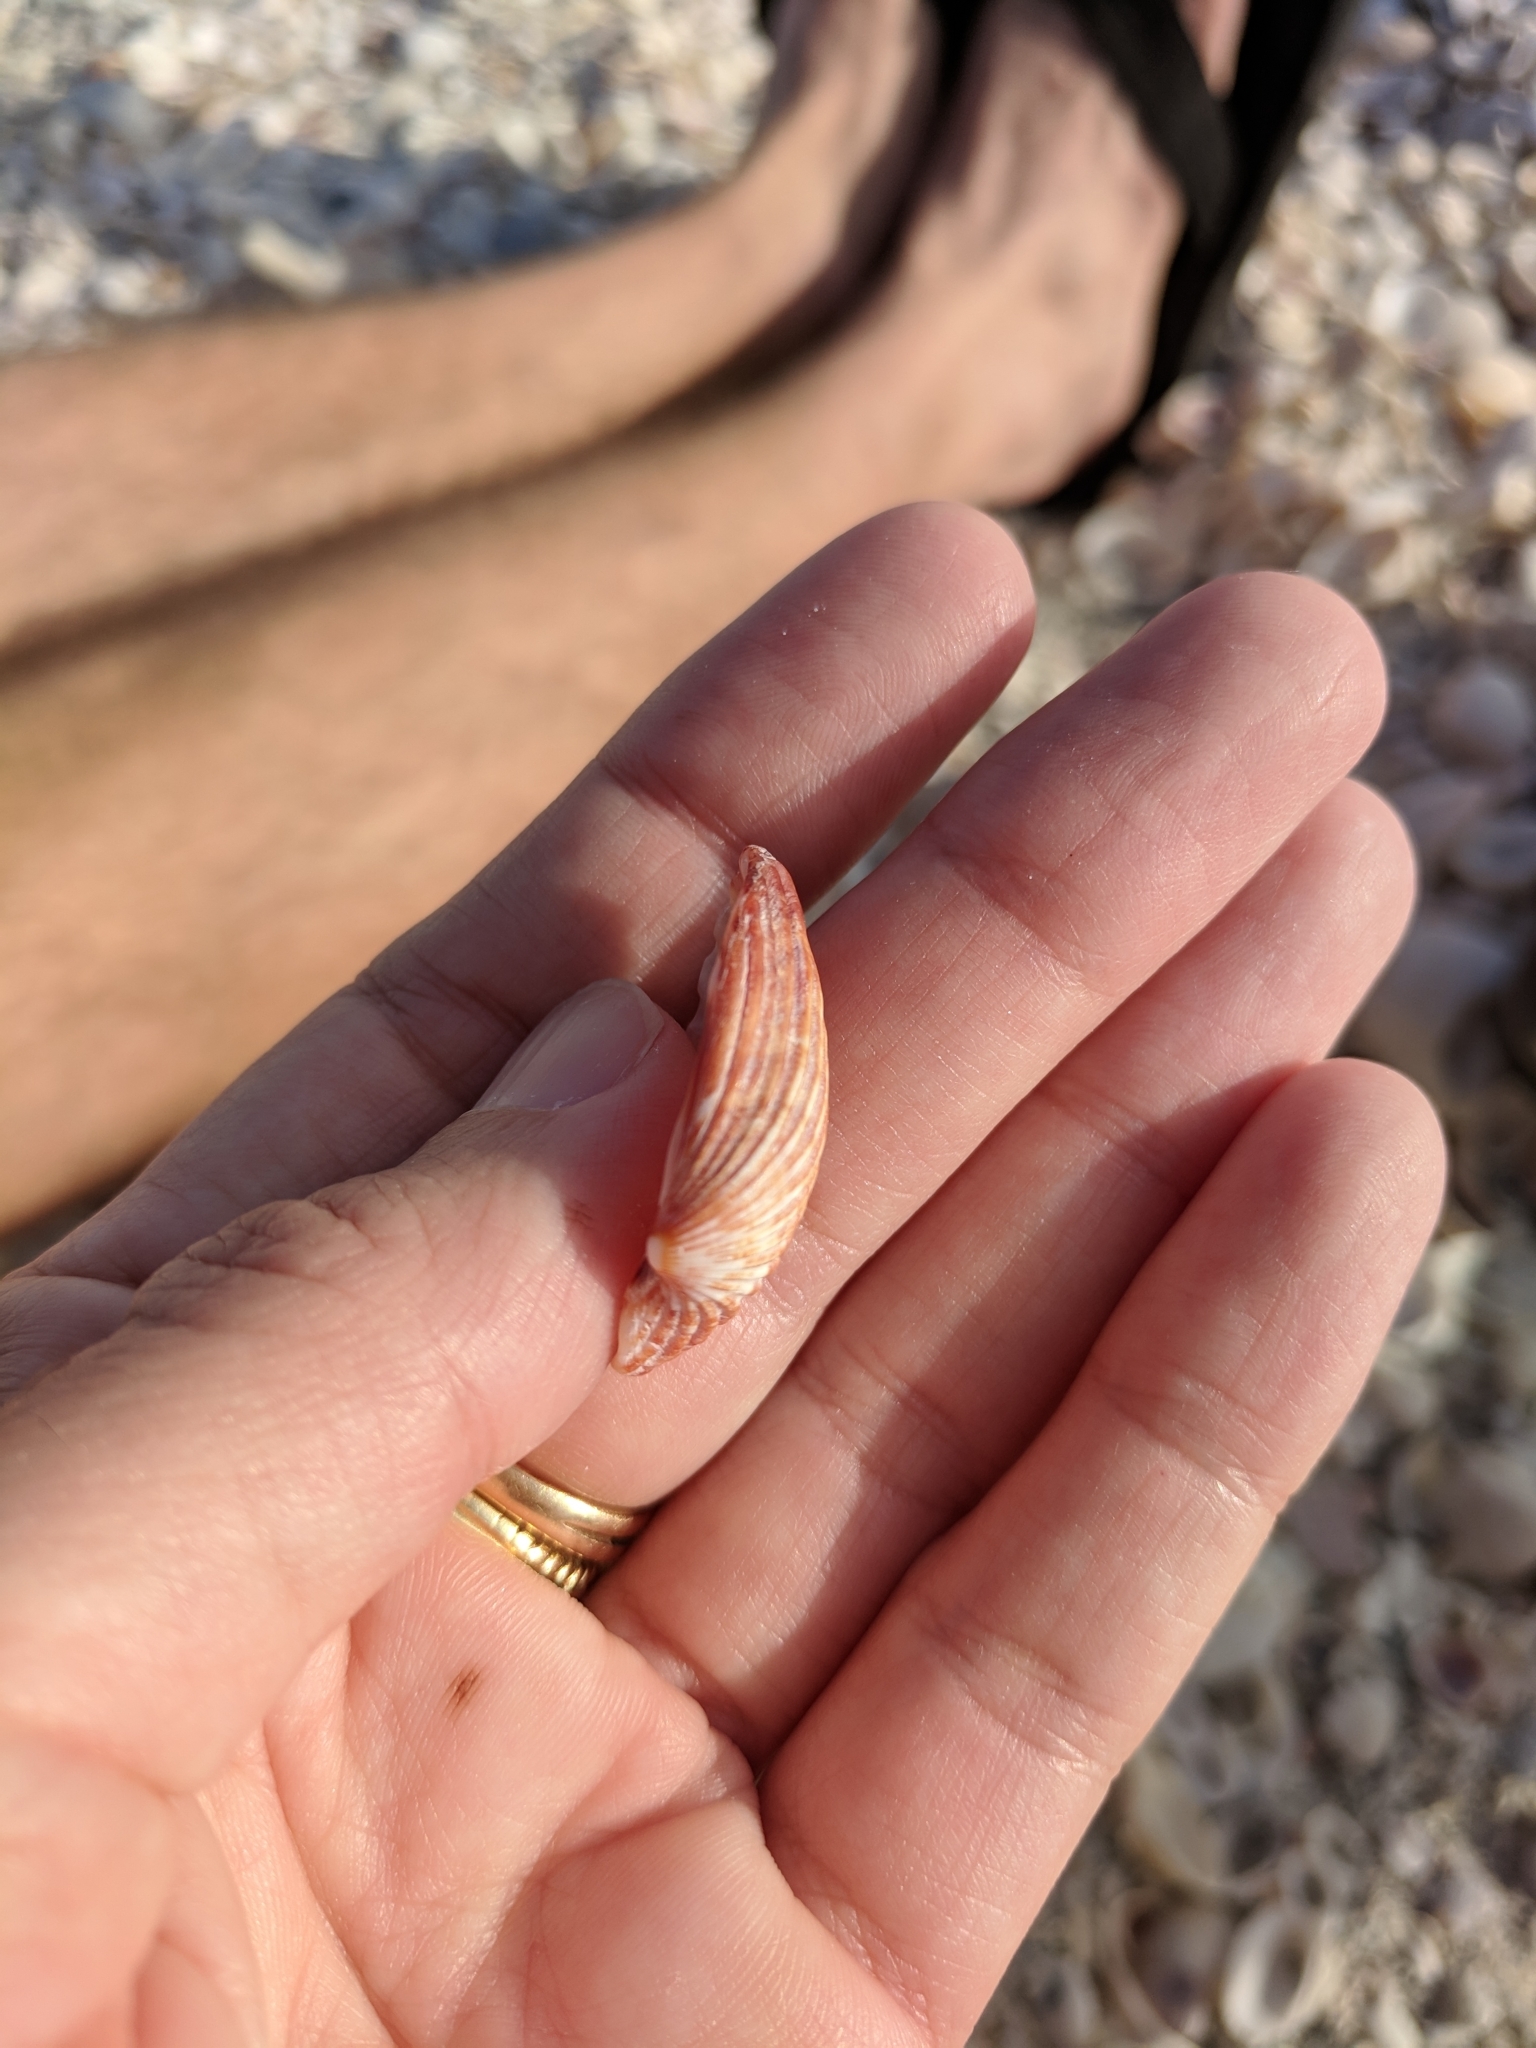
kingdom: Animalia
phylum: Mollusca
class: Bivalvia
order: Carditida
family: Carditidae
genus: Cardites
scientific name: Cardites floridanus
